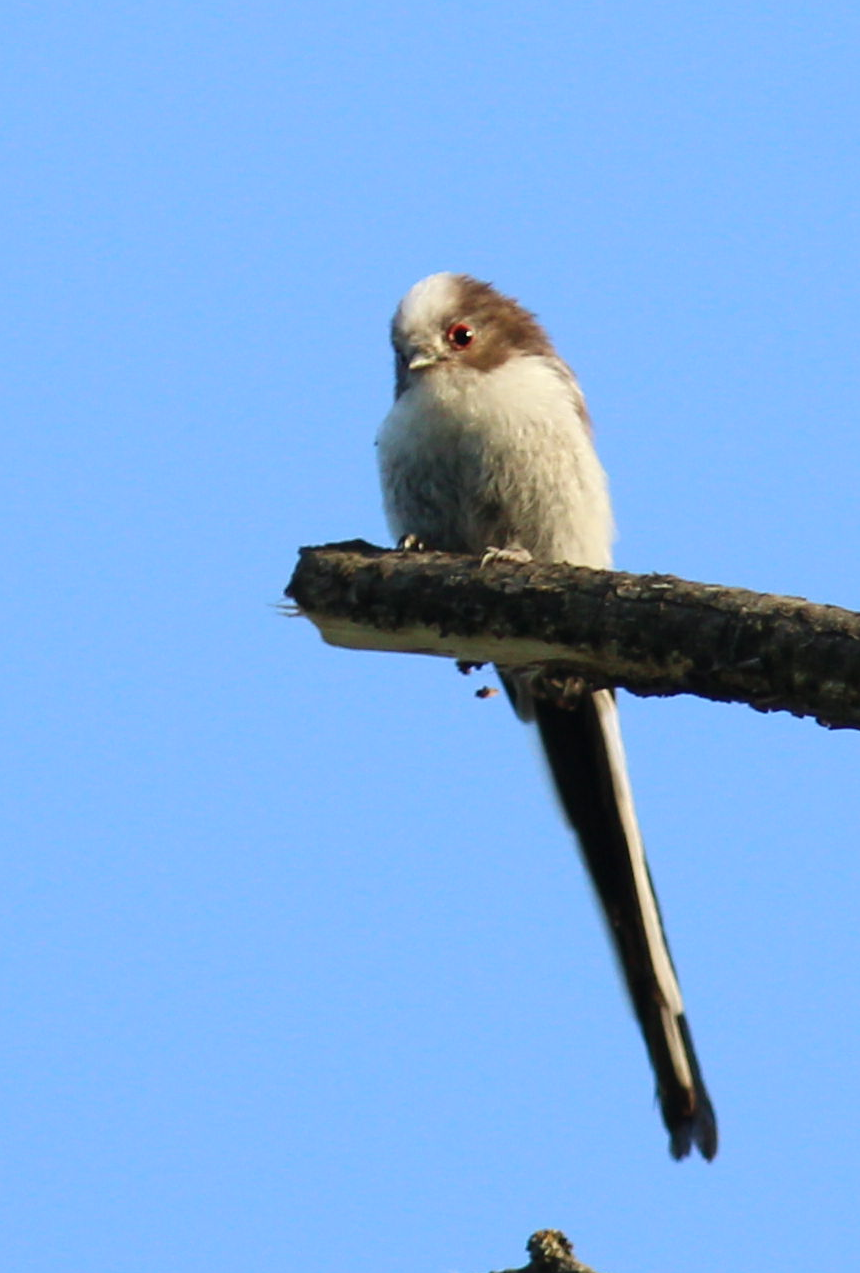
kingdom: Animalia
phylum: Chordata
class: Aves
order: Passeriformes
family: Aegithalidae
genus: Aegithalos
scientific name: Aegithalos caudatus
